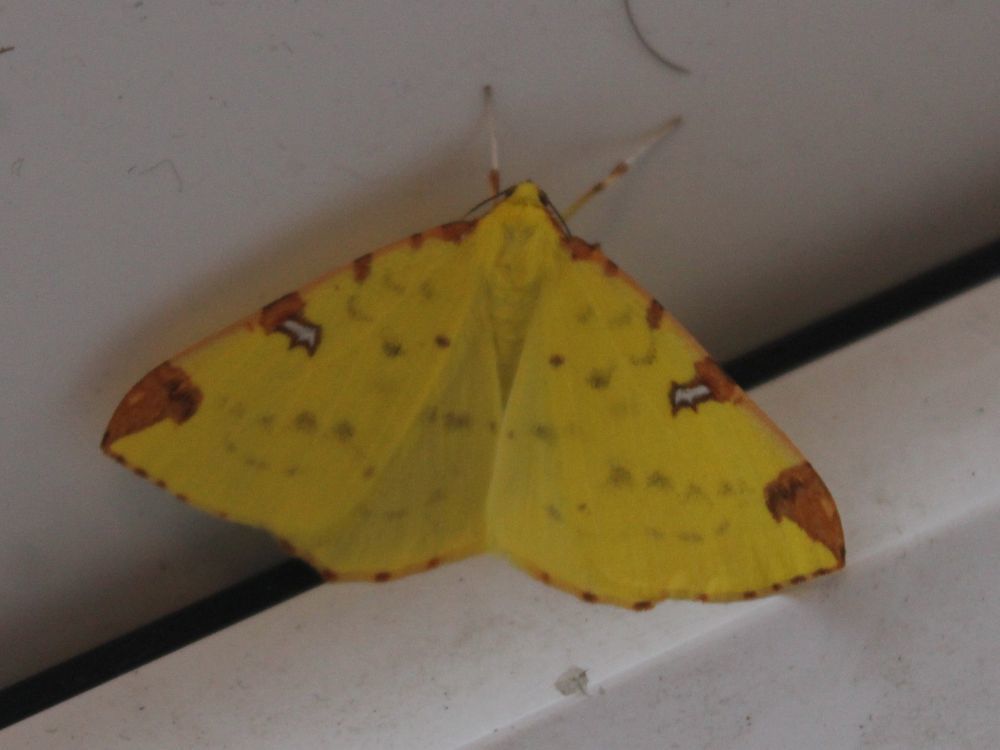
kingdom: Animalia
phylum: Arthropoda
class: Insecta
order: Lepidoptera
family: Geometridae
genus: Opisthograptis
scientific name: Opisthograptis luteolata
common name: Brimstone moth
